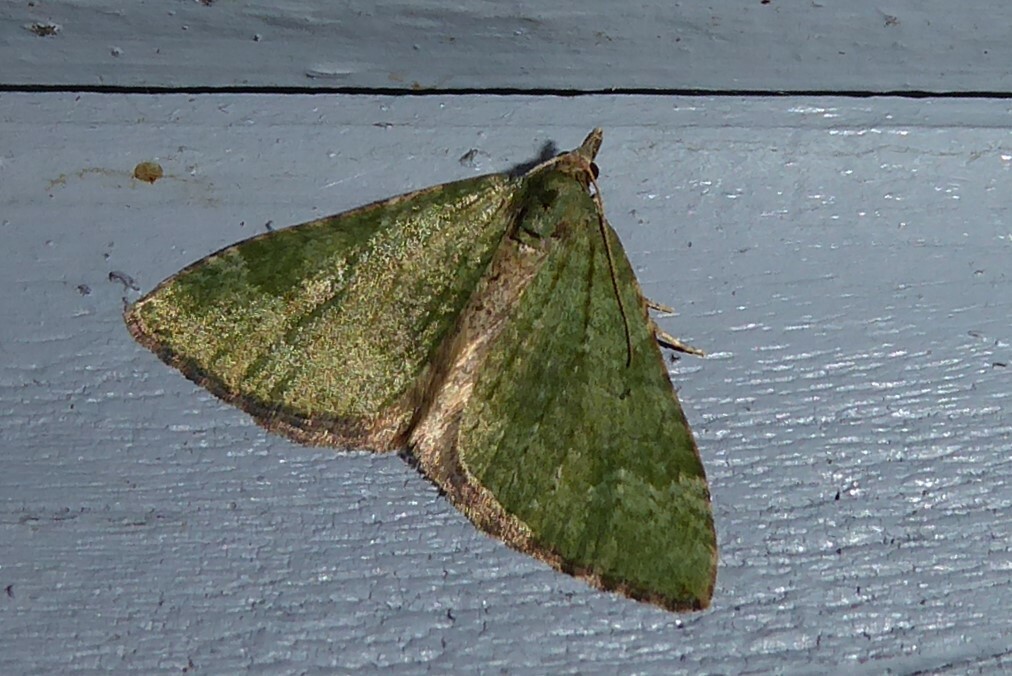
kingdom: Animalia
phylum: Arthropoda
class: Insecta
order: Lepidoptera
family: Geometridae
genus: Epyaxa
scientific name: Epyaxa rosearia
